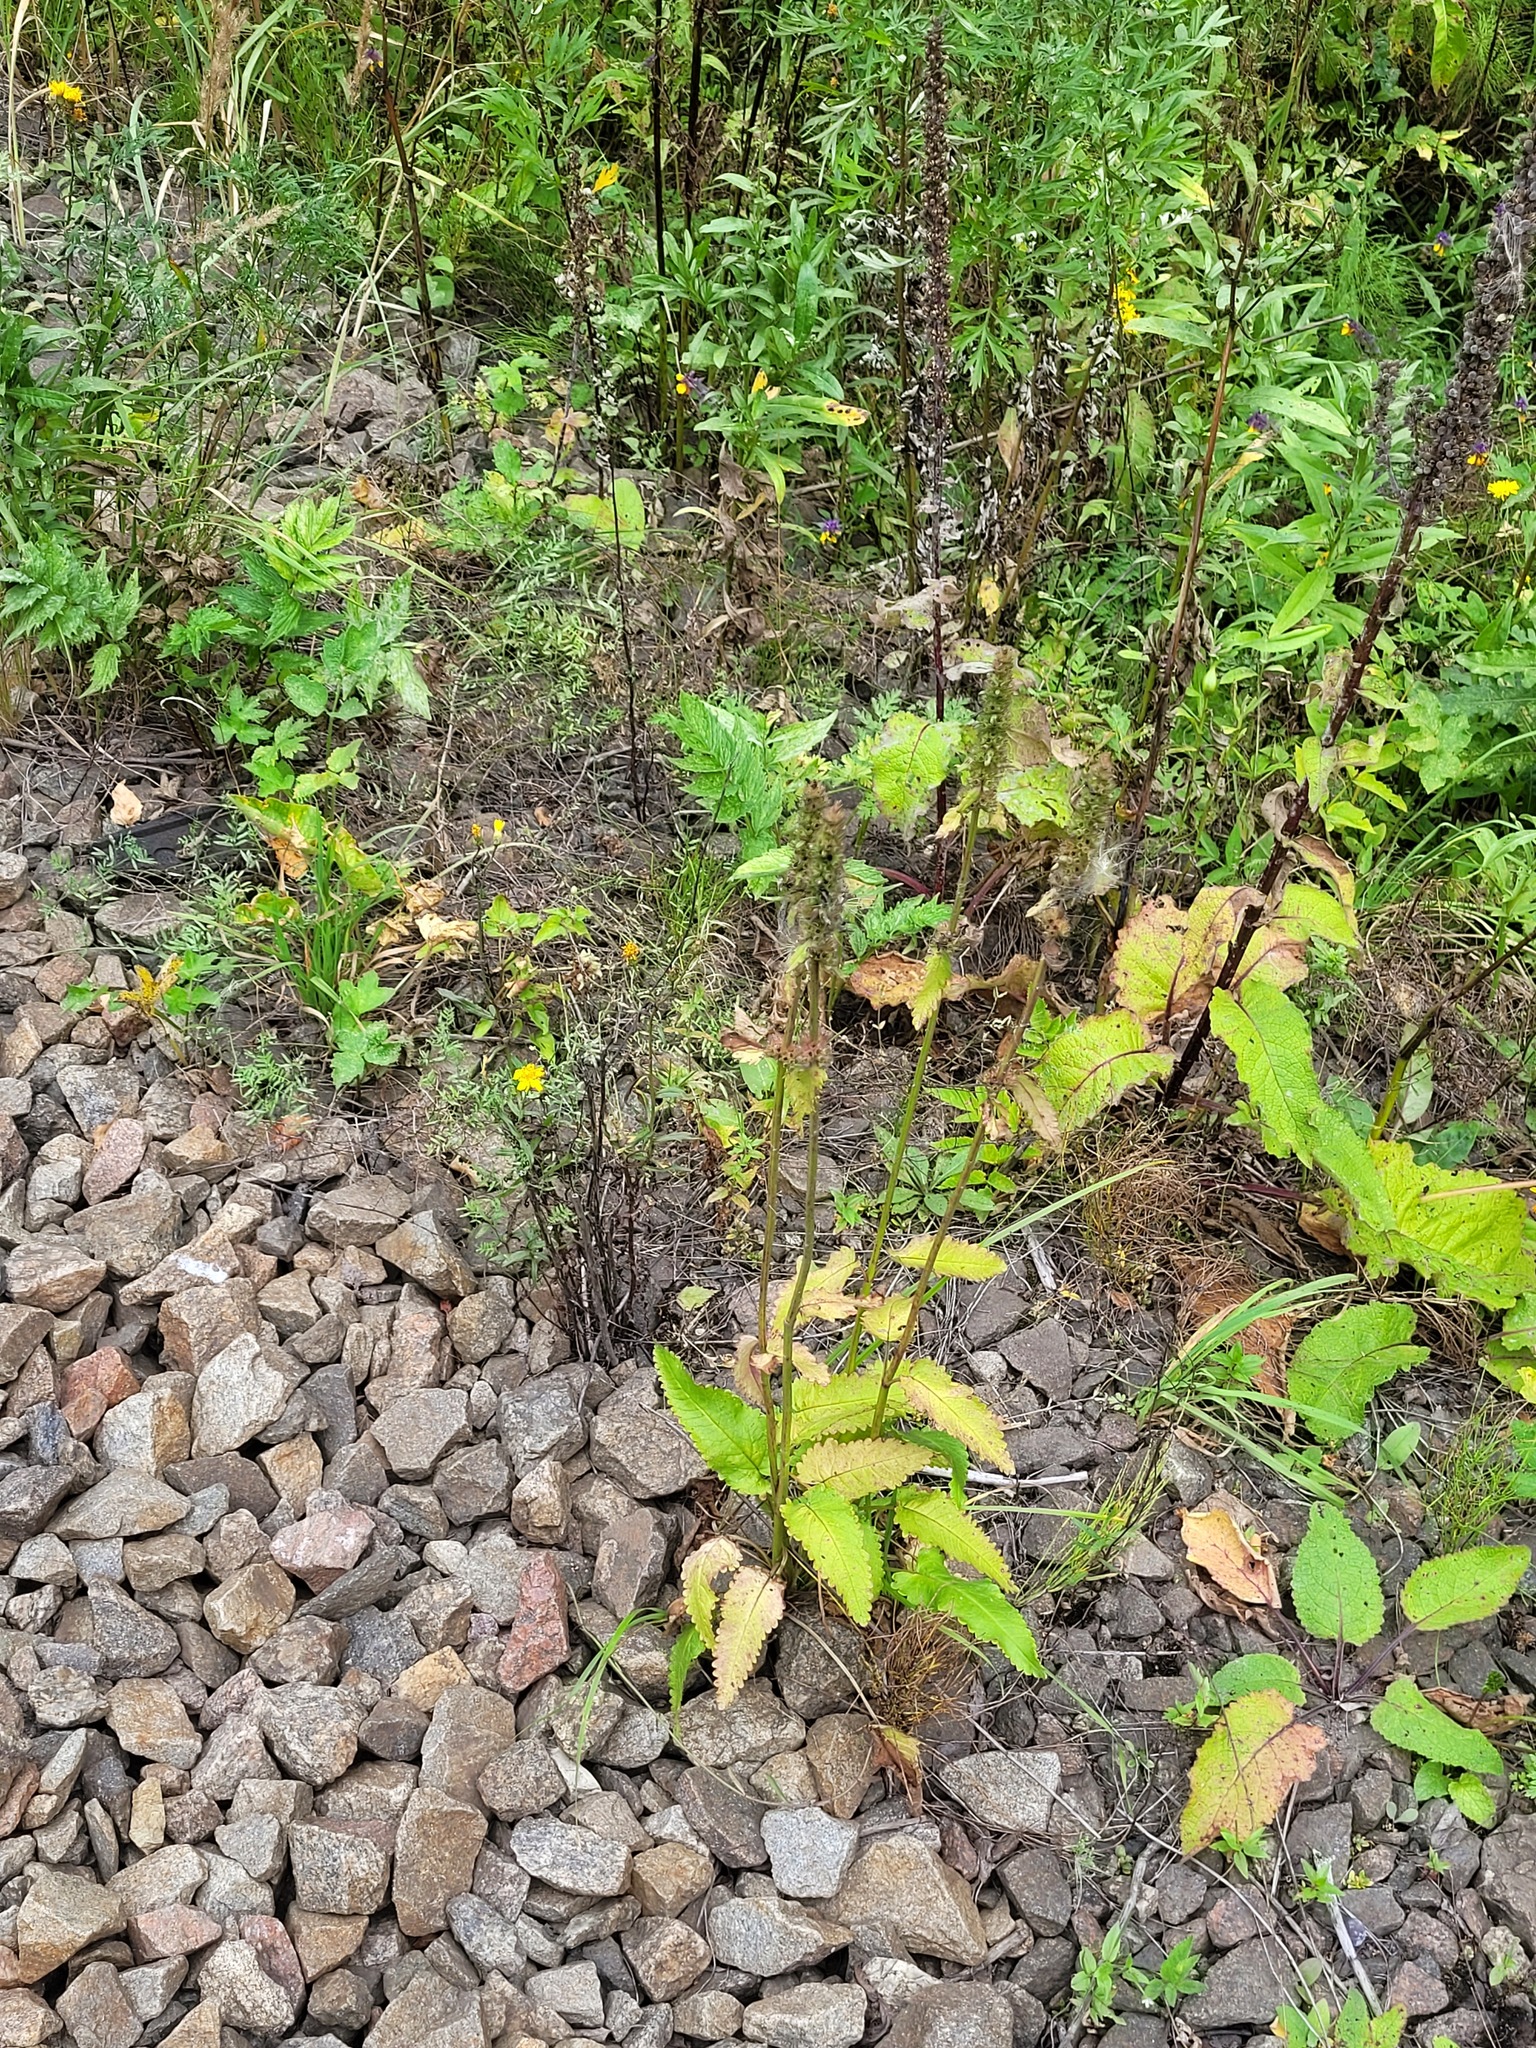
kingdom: Plantae
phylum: Tracheophyta
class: Magnoliopsida
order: Lamiales
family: Lamiaceae
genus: Betonica
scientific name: Betonica officinalis
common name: Bishop's-wort
